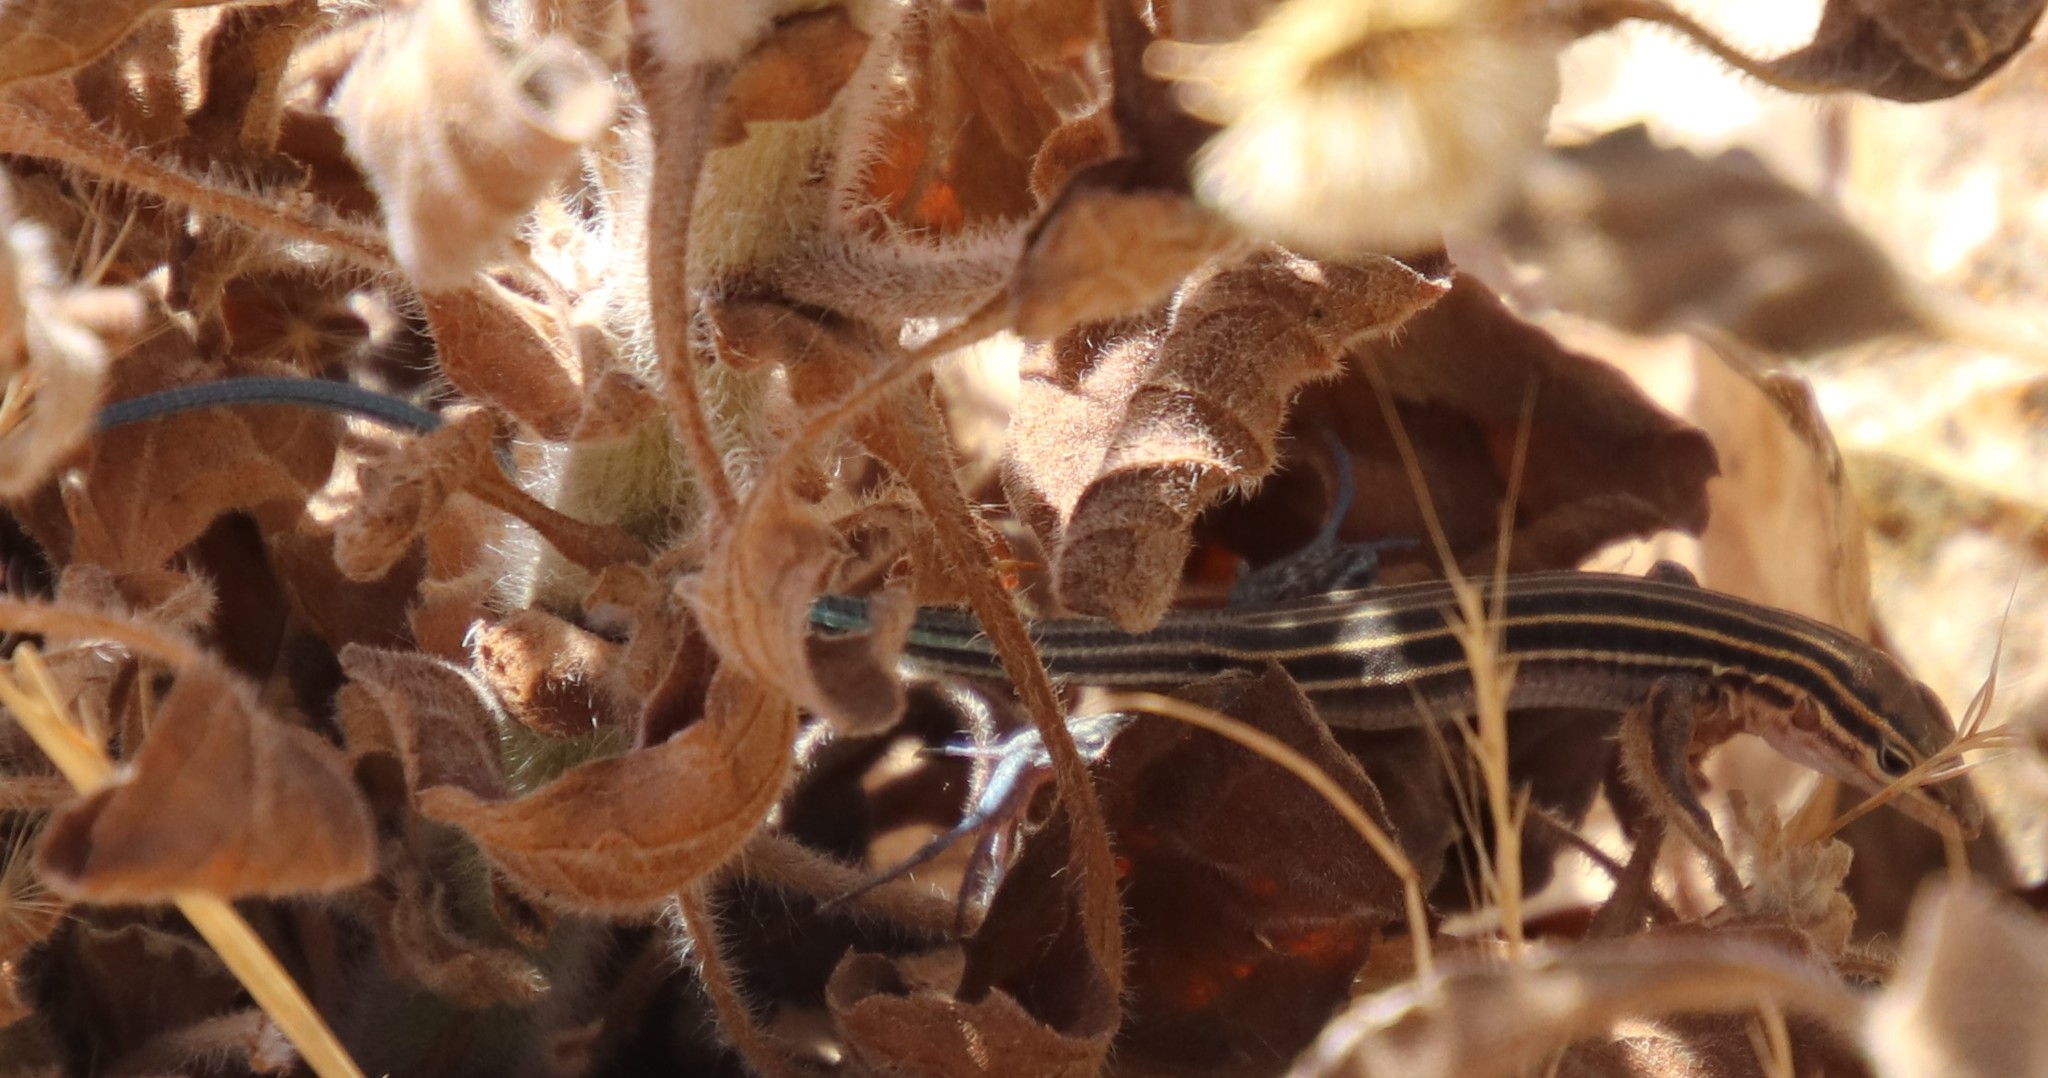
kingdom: Animalia
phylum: Chordata
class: Squamata
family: Teiidae
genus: Aspidoscelis
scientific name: Aspidoscelis hyperythrus
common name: Orange-throated race-runner
